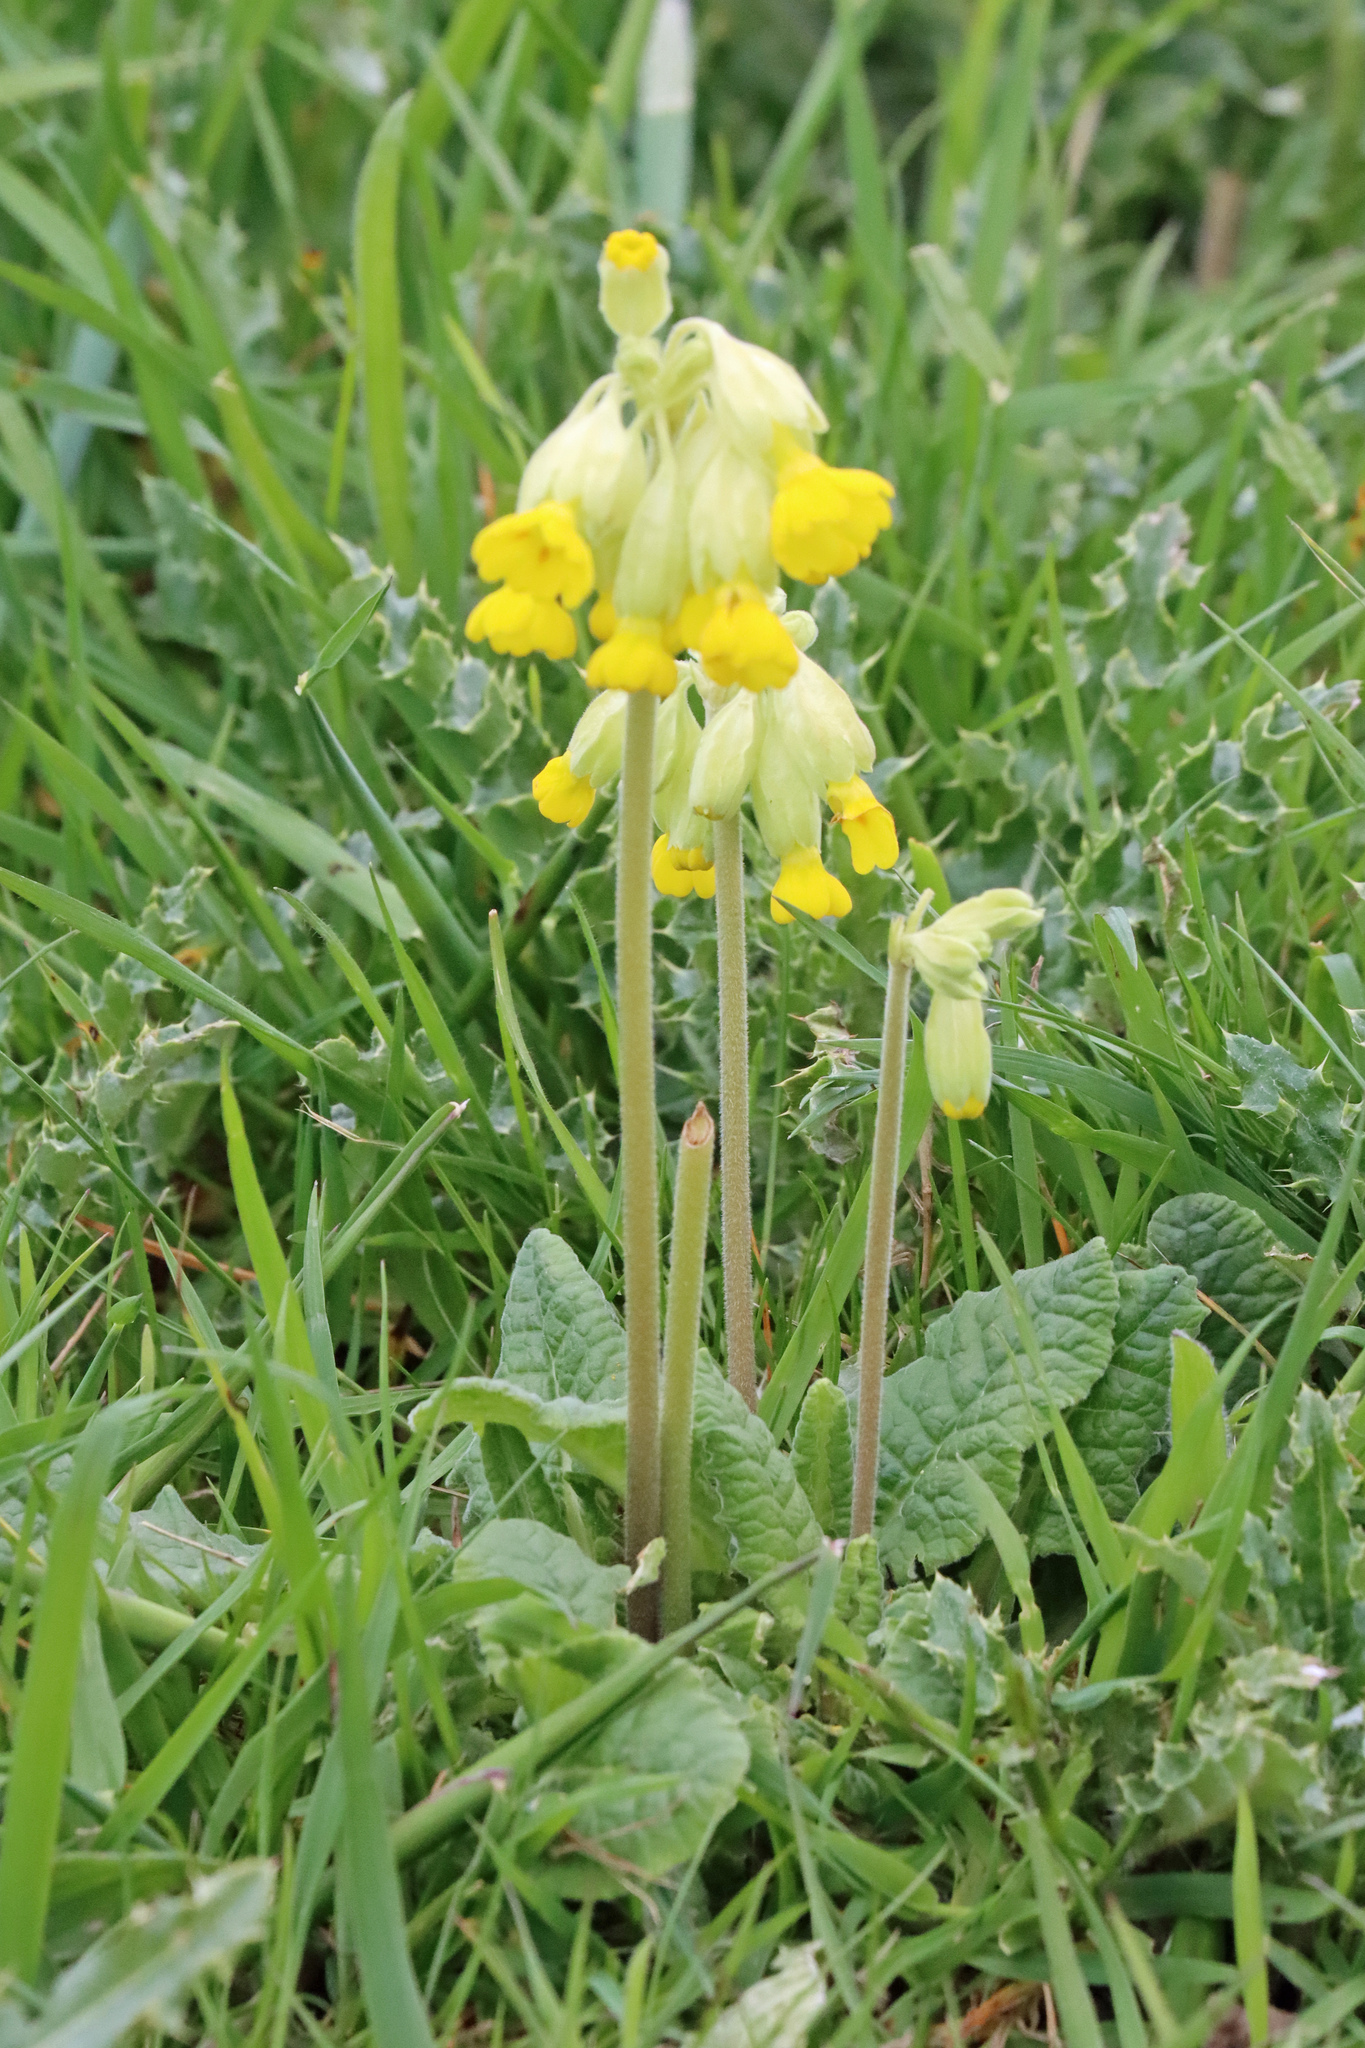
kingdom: Plantae
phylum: Tracheophyta
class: Magnoliopsida
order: Ericales
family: Primulaceae
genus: Primula
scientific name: Primula veris
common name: Cowslip
